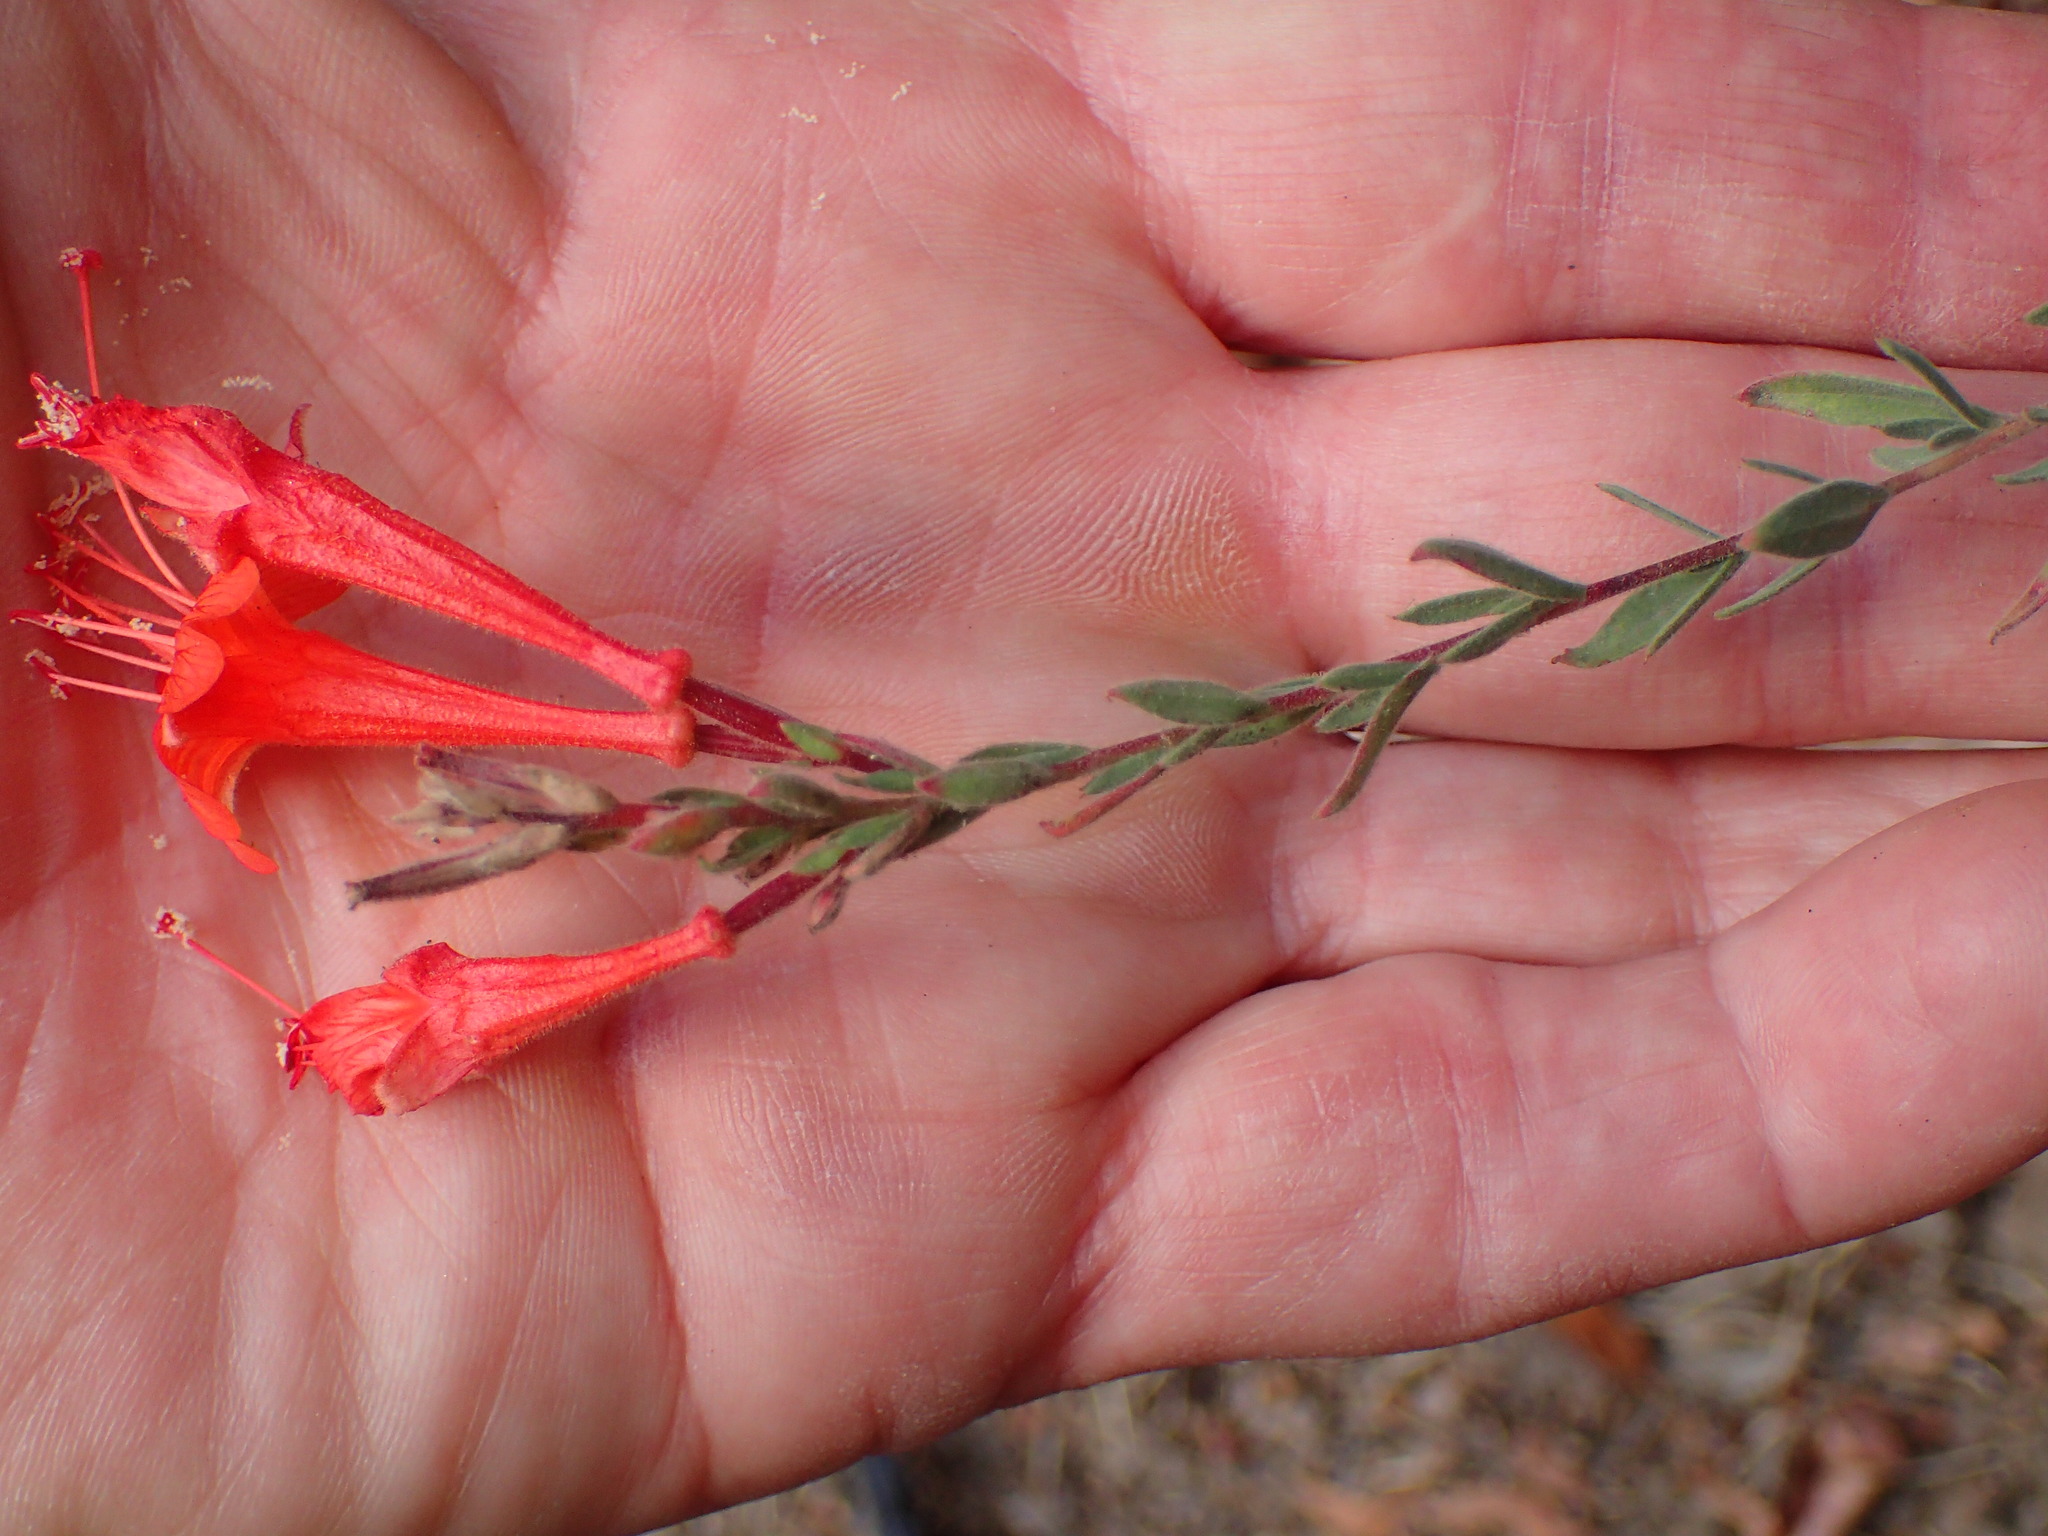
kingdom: Plantae
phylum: Tracheophyta
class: Magnoliopsida
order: Myrtales
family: Onagraceae
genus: Epilobium
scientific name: Epilobium canum
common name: California-fuchsia
